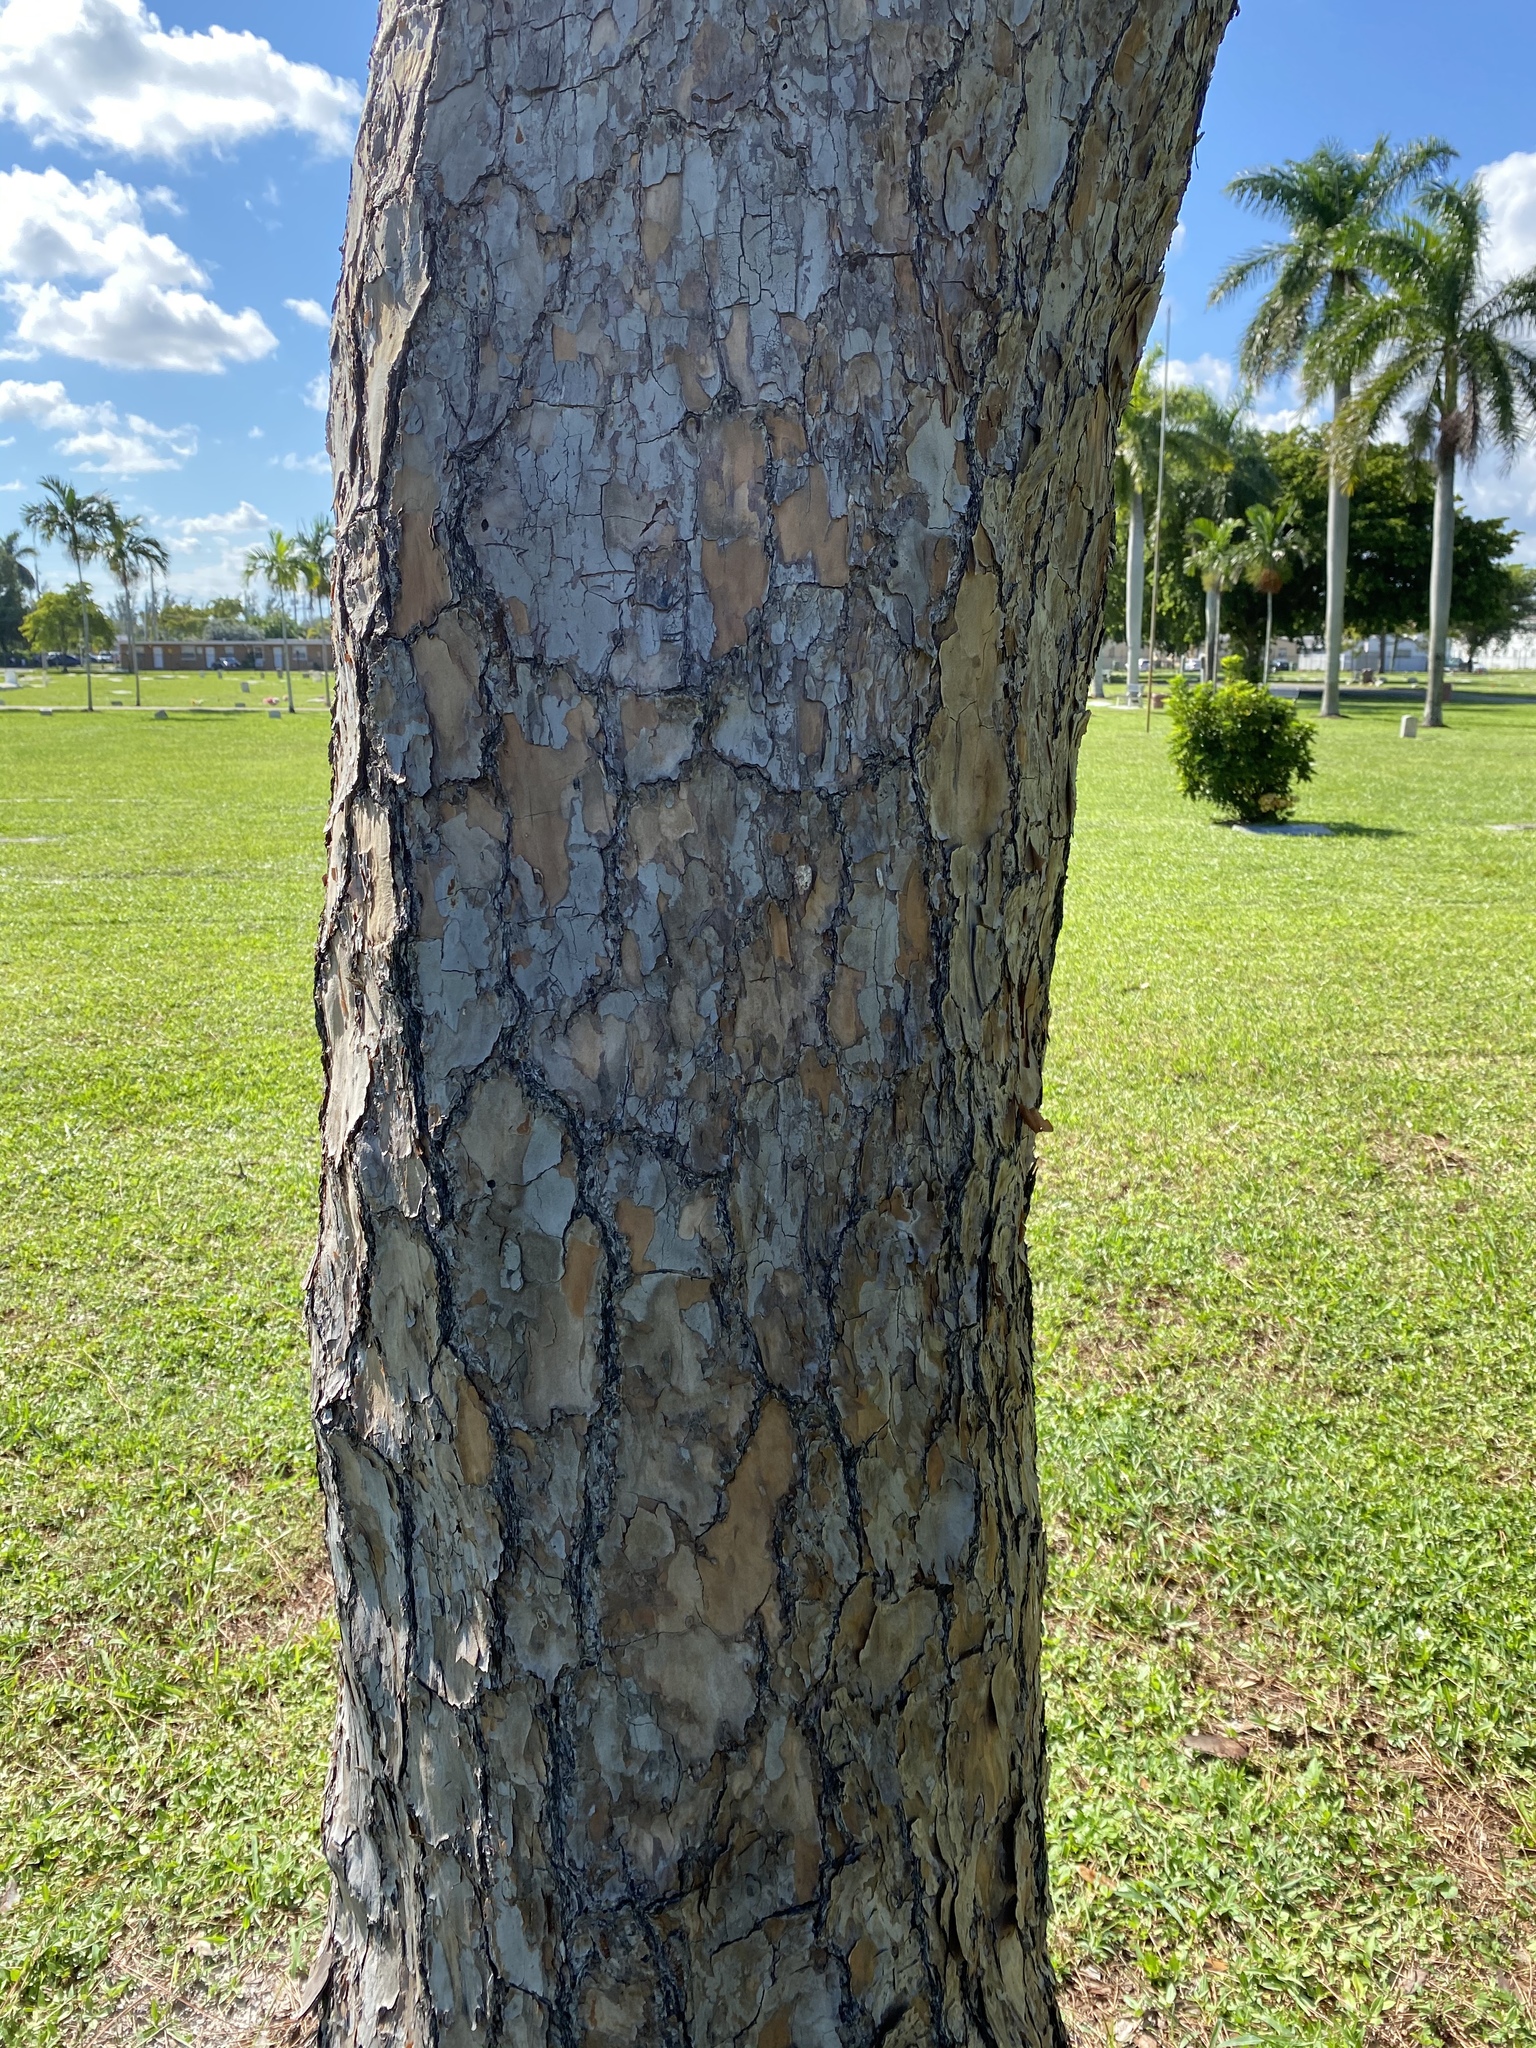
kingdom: Plantae
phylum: Tracheophyta
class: Pinopsida
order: Pinales
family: Pinaceae
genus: Pinus
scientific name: Pinus elliottii
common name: Slash pine
